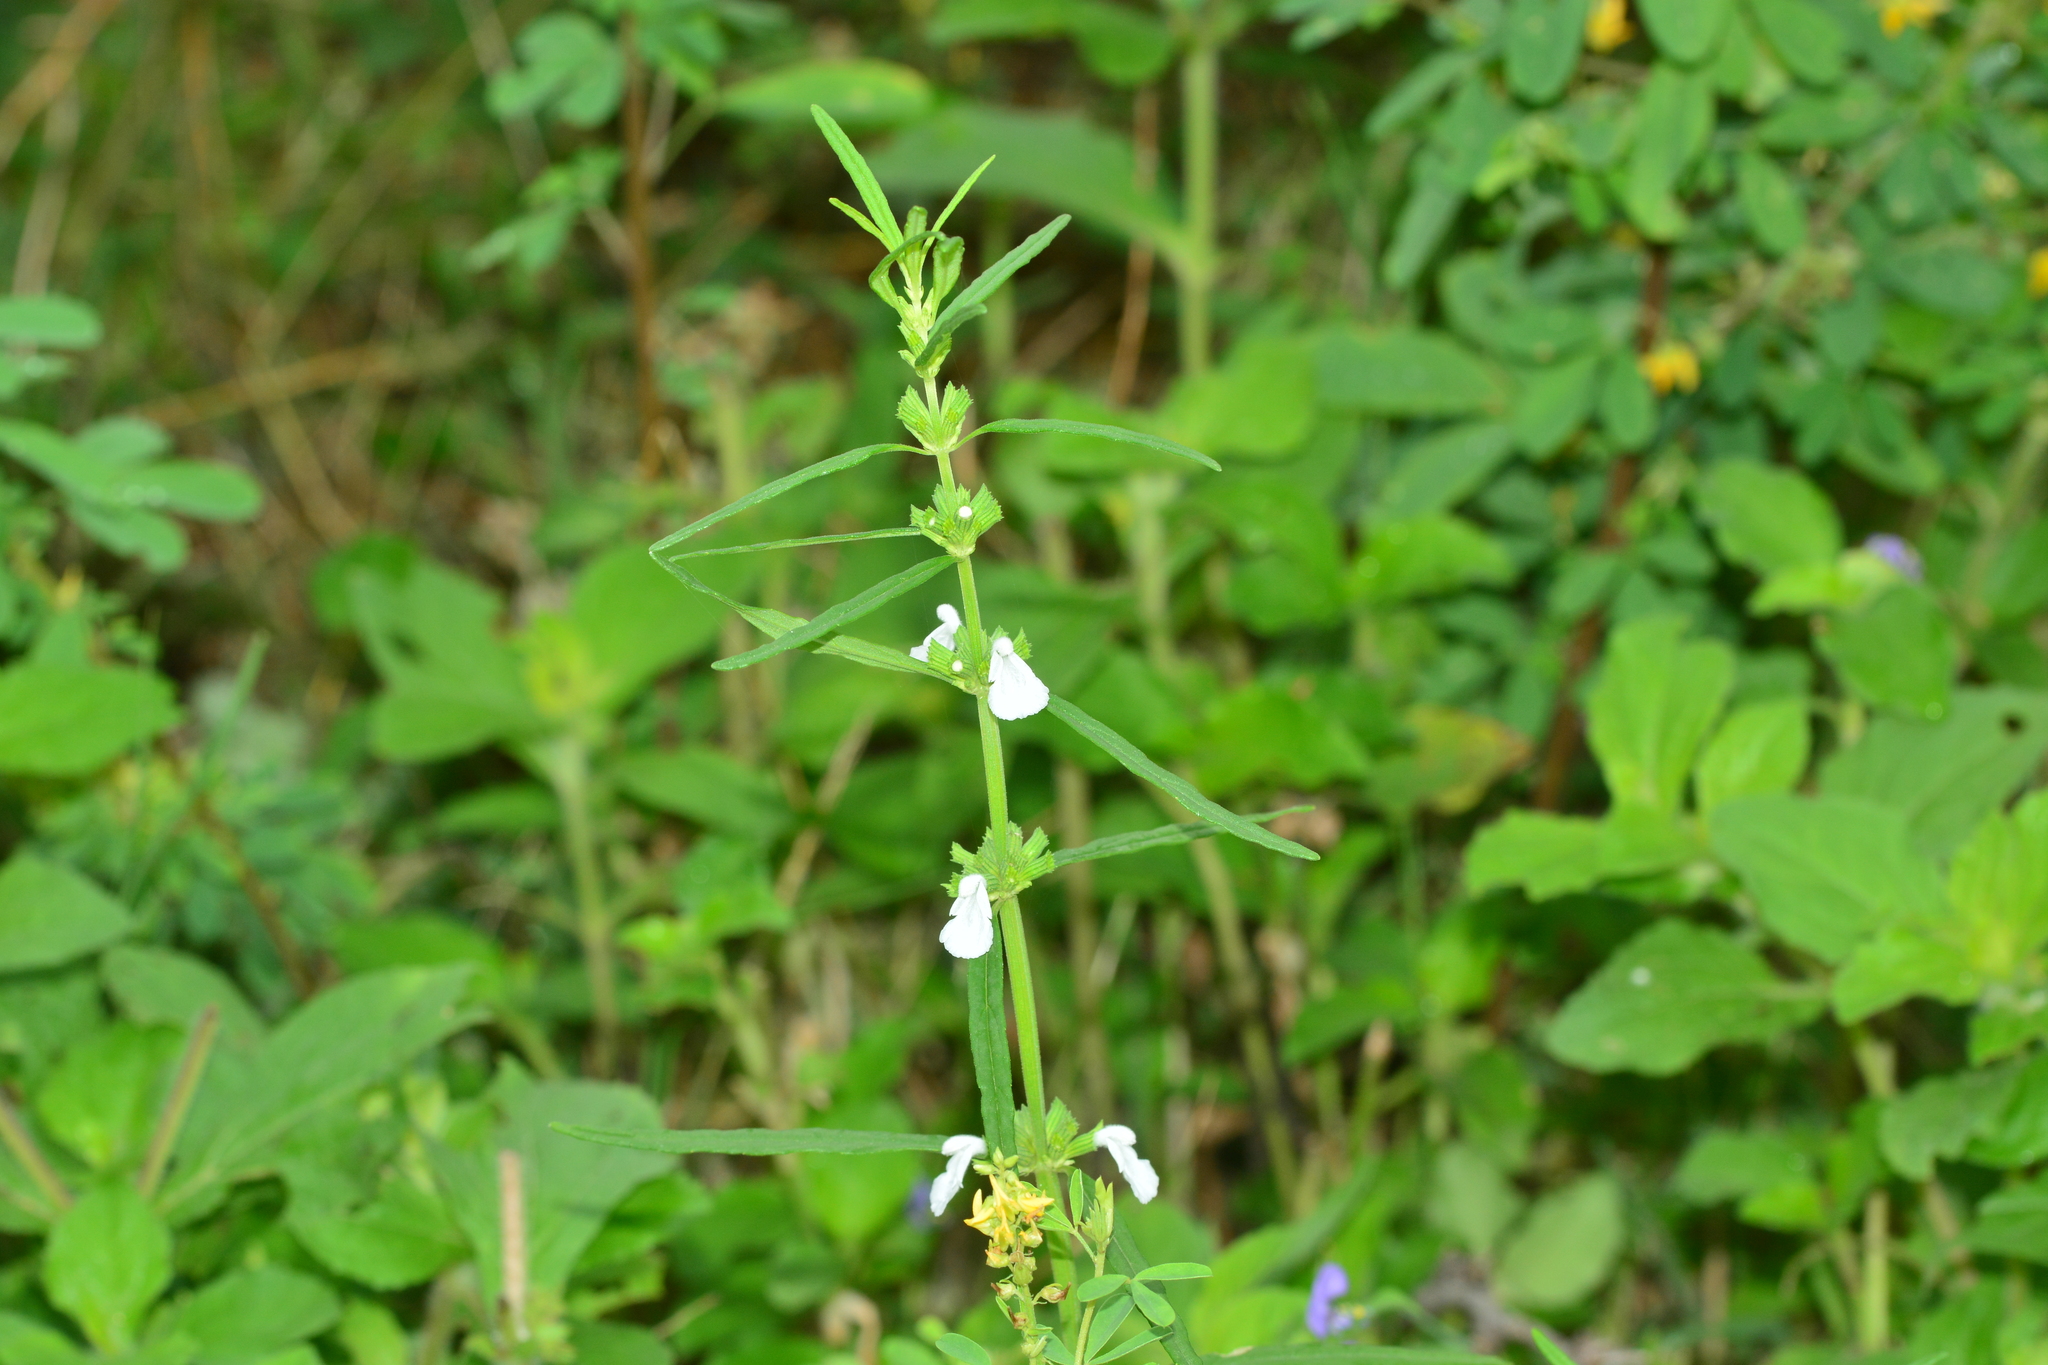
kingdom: Plantae
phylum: Tracheophyta
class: Magnoliopsida
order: Lamiales
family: Lamiaceae
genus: Leucas
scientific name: Leucas longifolia
